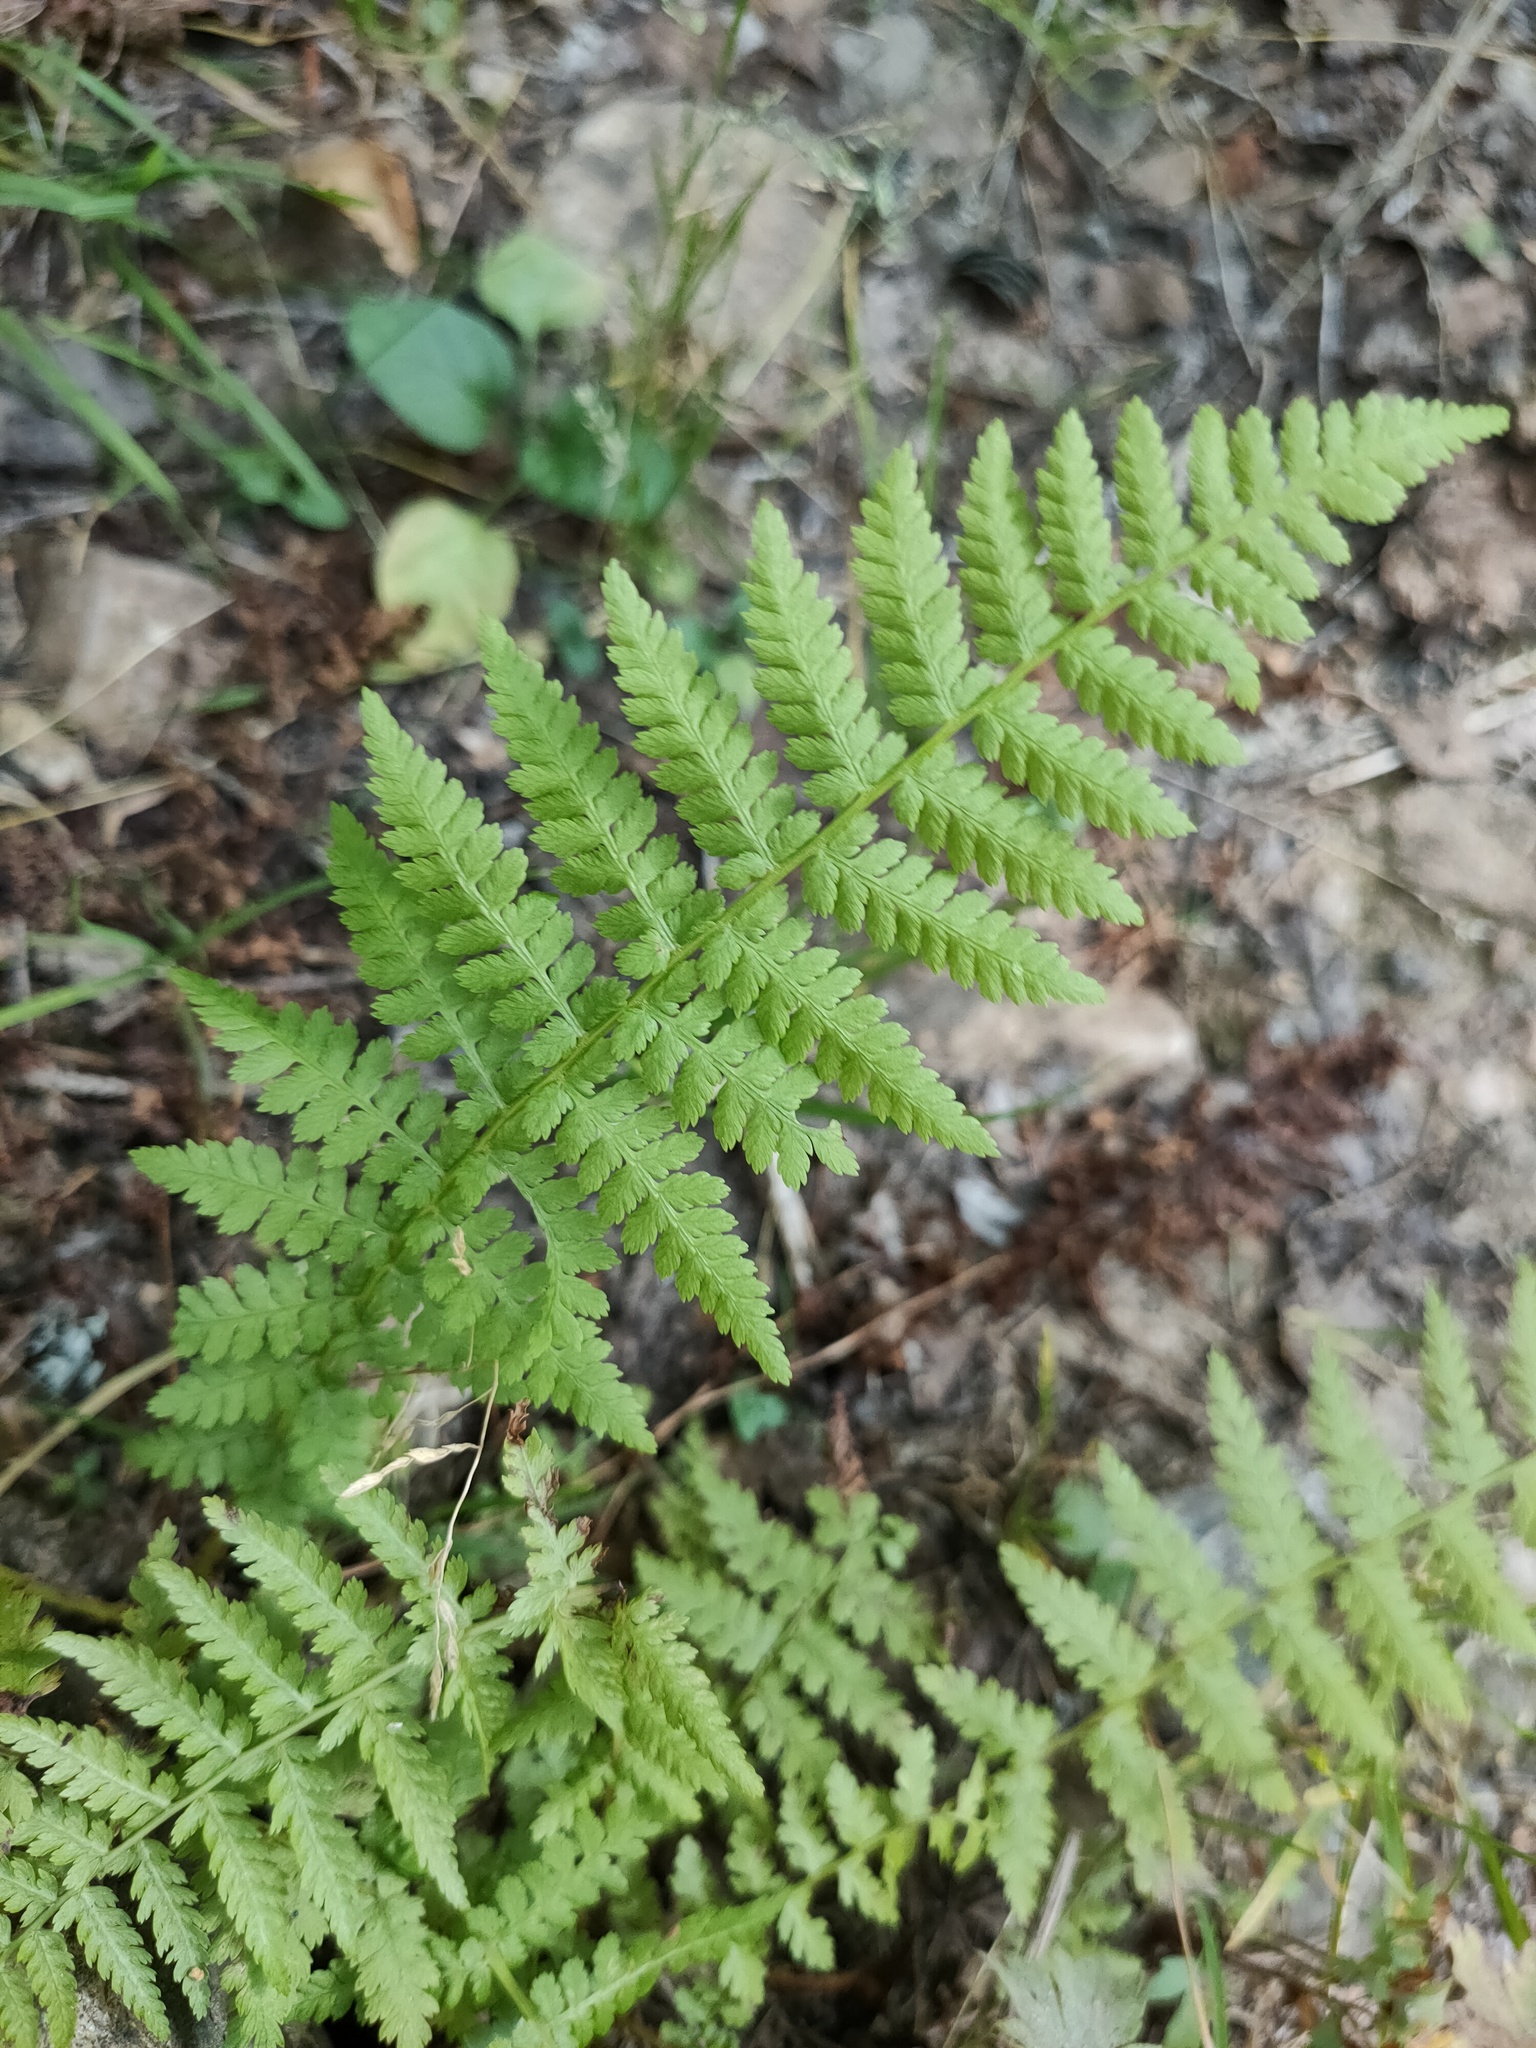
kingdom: Plantae
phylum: Tracheophyta
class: Polypodiopsida
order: Polypodiales
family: Athyriaceae
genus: Athyrium
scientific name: Athyrium filix-femina
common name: Lady fern
